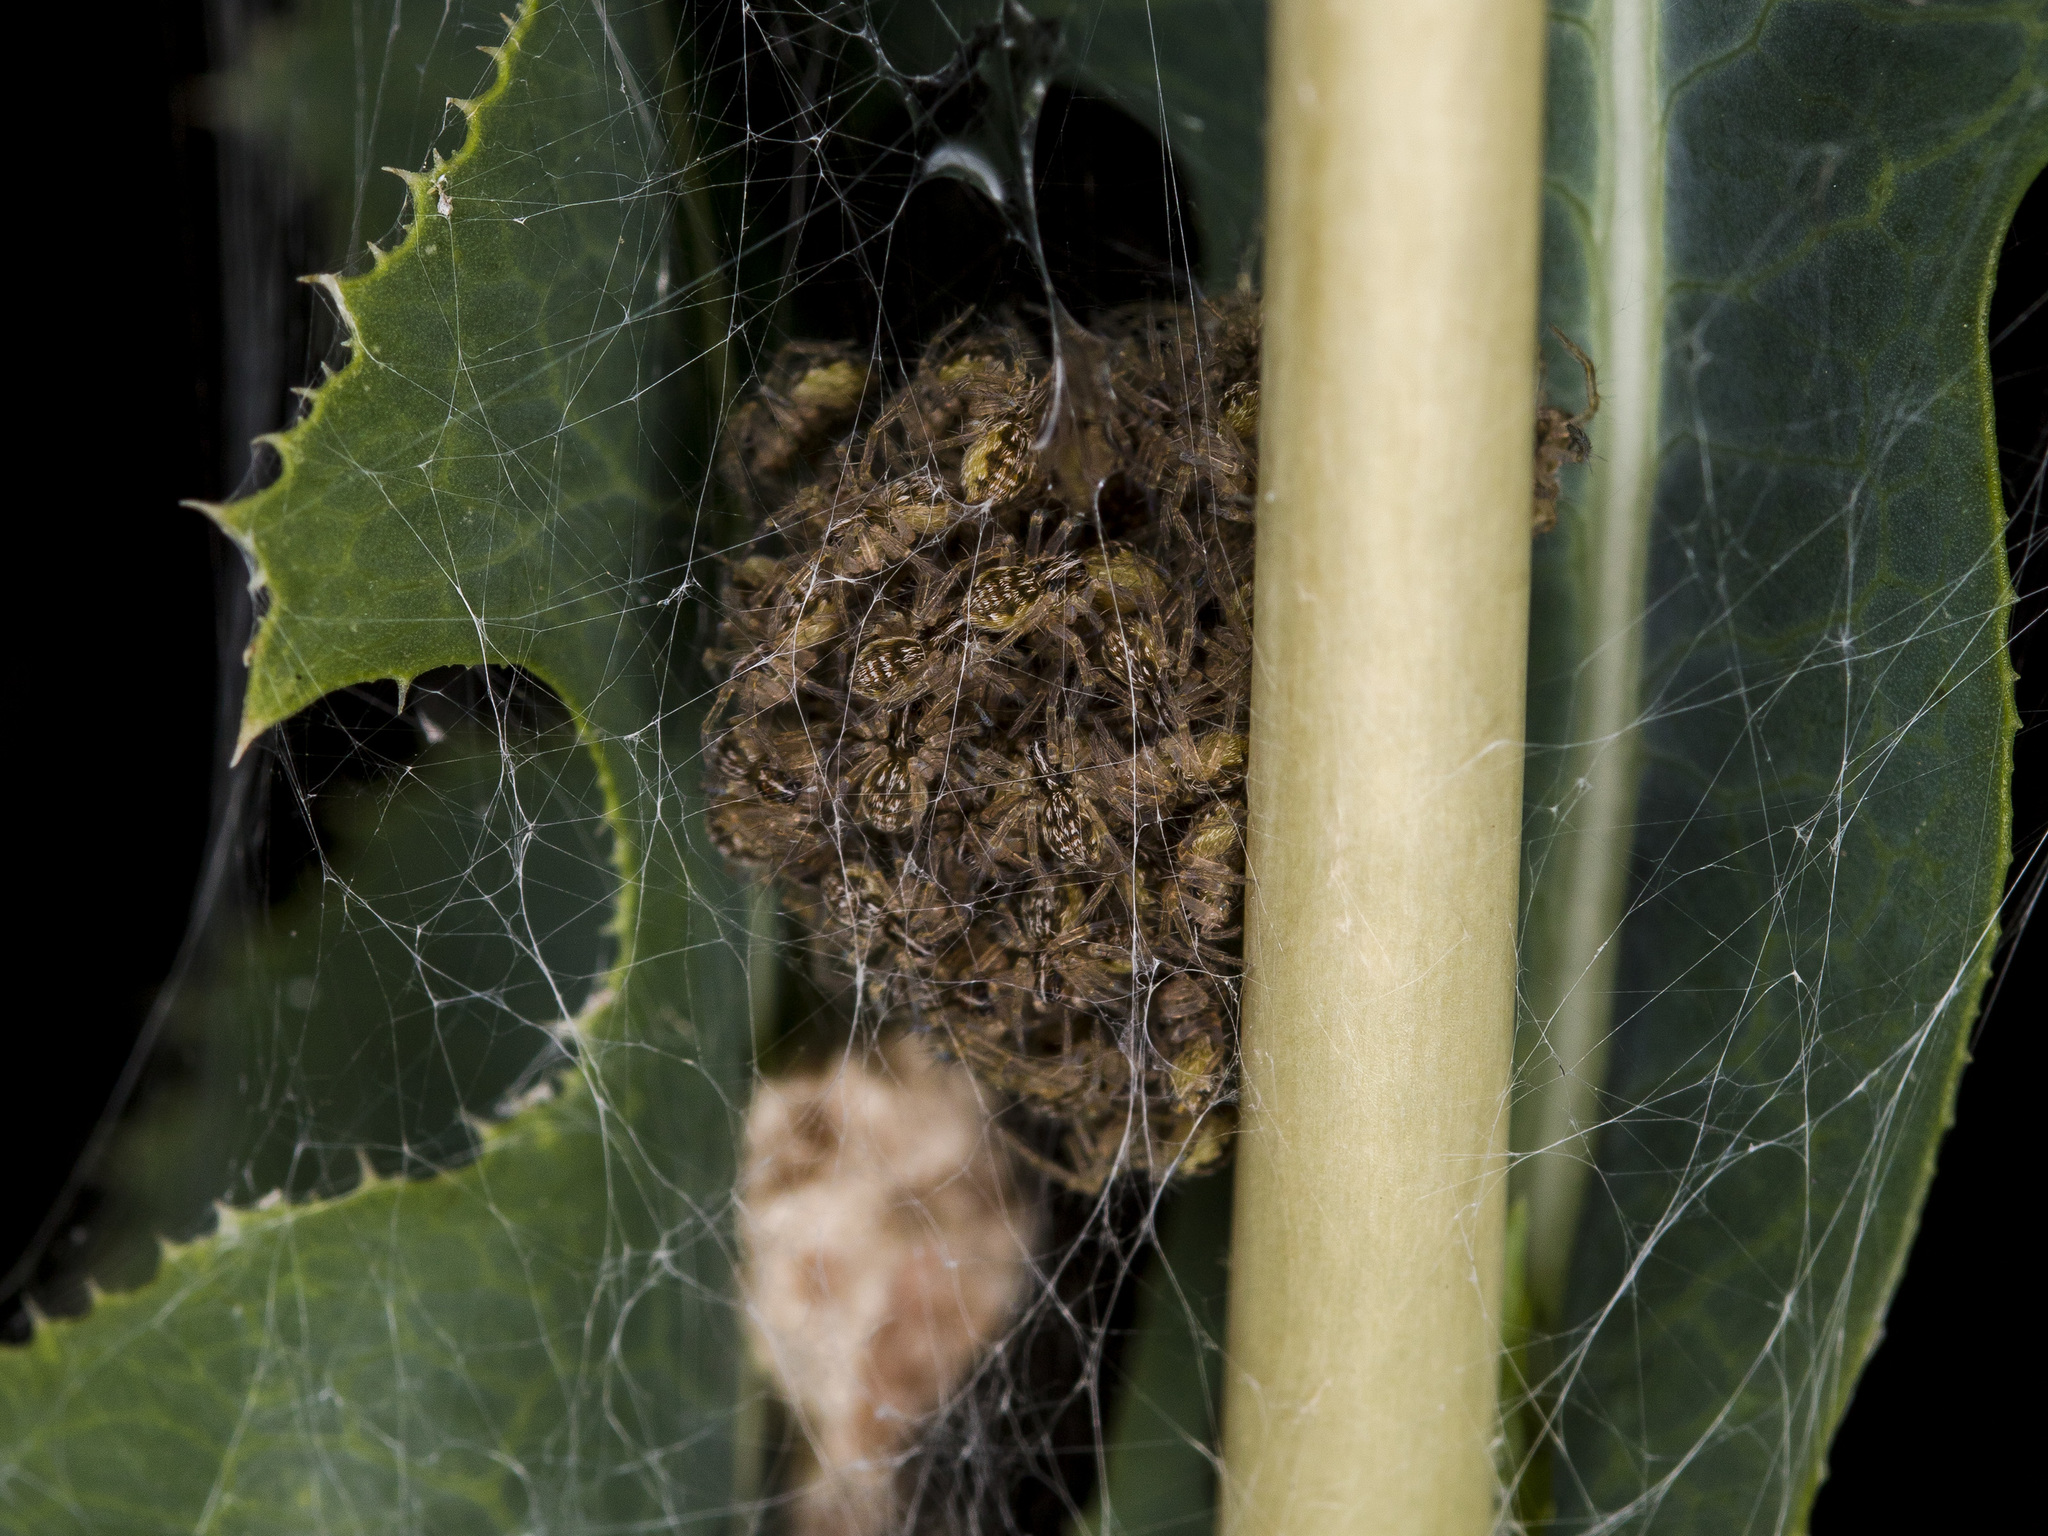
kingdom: Animalia
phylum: Arthropoda
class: Arachnida
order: Araneae
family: Pisauridae
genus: Pisaura
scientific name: Pisaura mirabilis
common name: Tent spider
